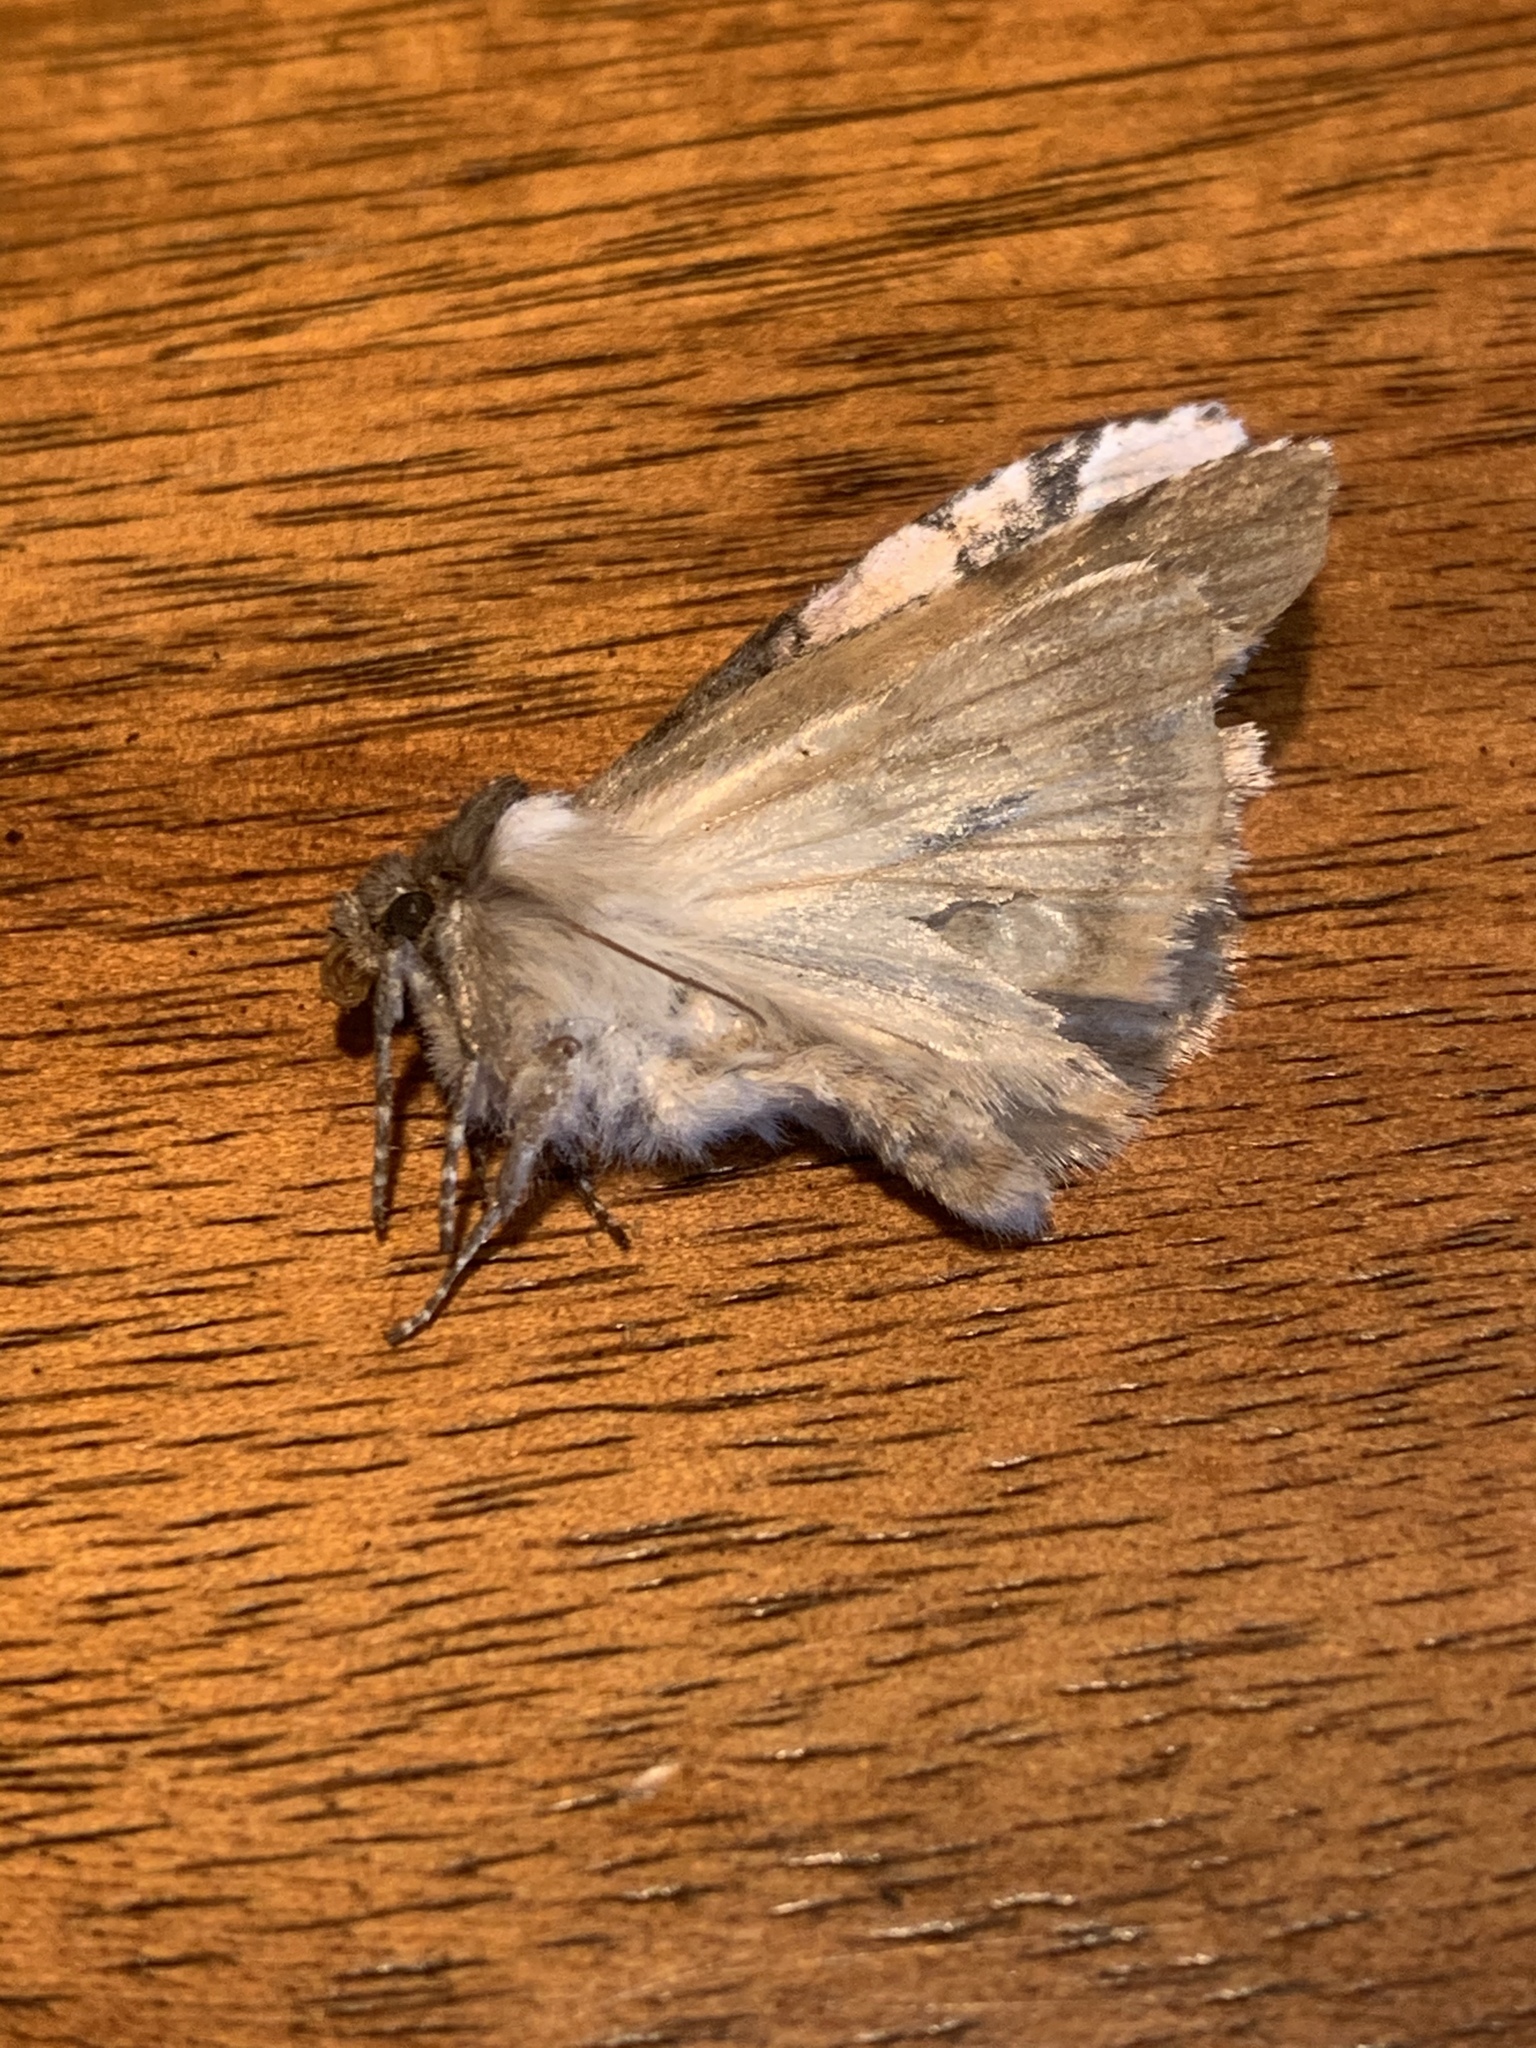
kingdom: Animalia
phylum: Arthropoda
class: Insecta
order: Lepidoptera
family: Drepanidae
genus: Euthyatira
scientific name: Euthyatira pudens
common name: Dogwood thyatirid moth
